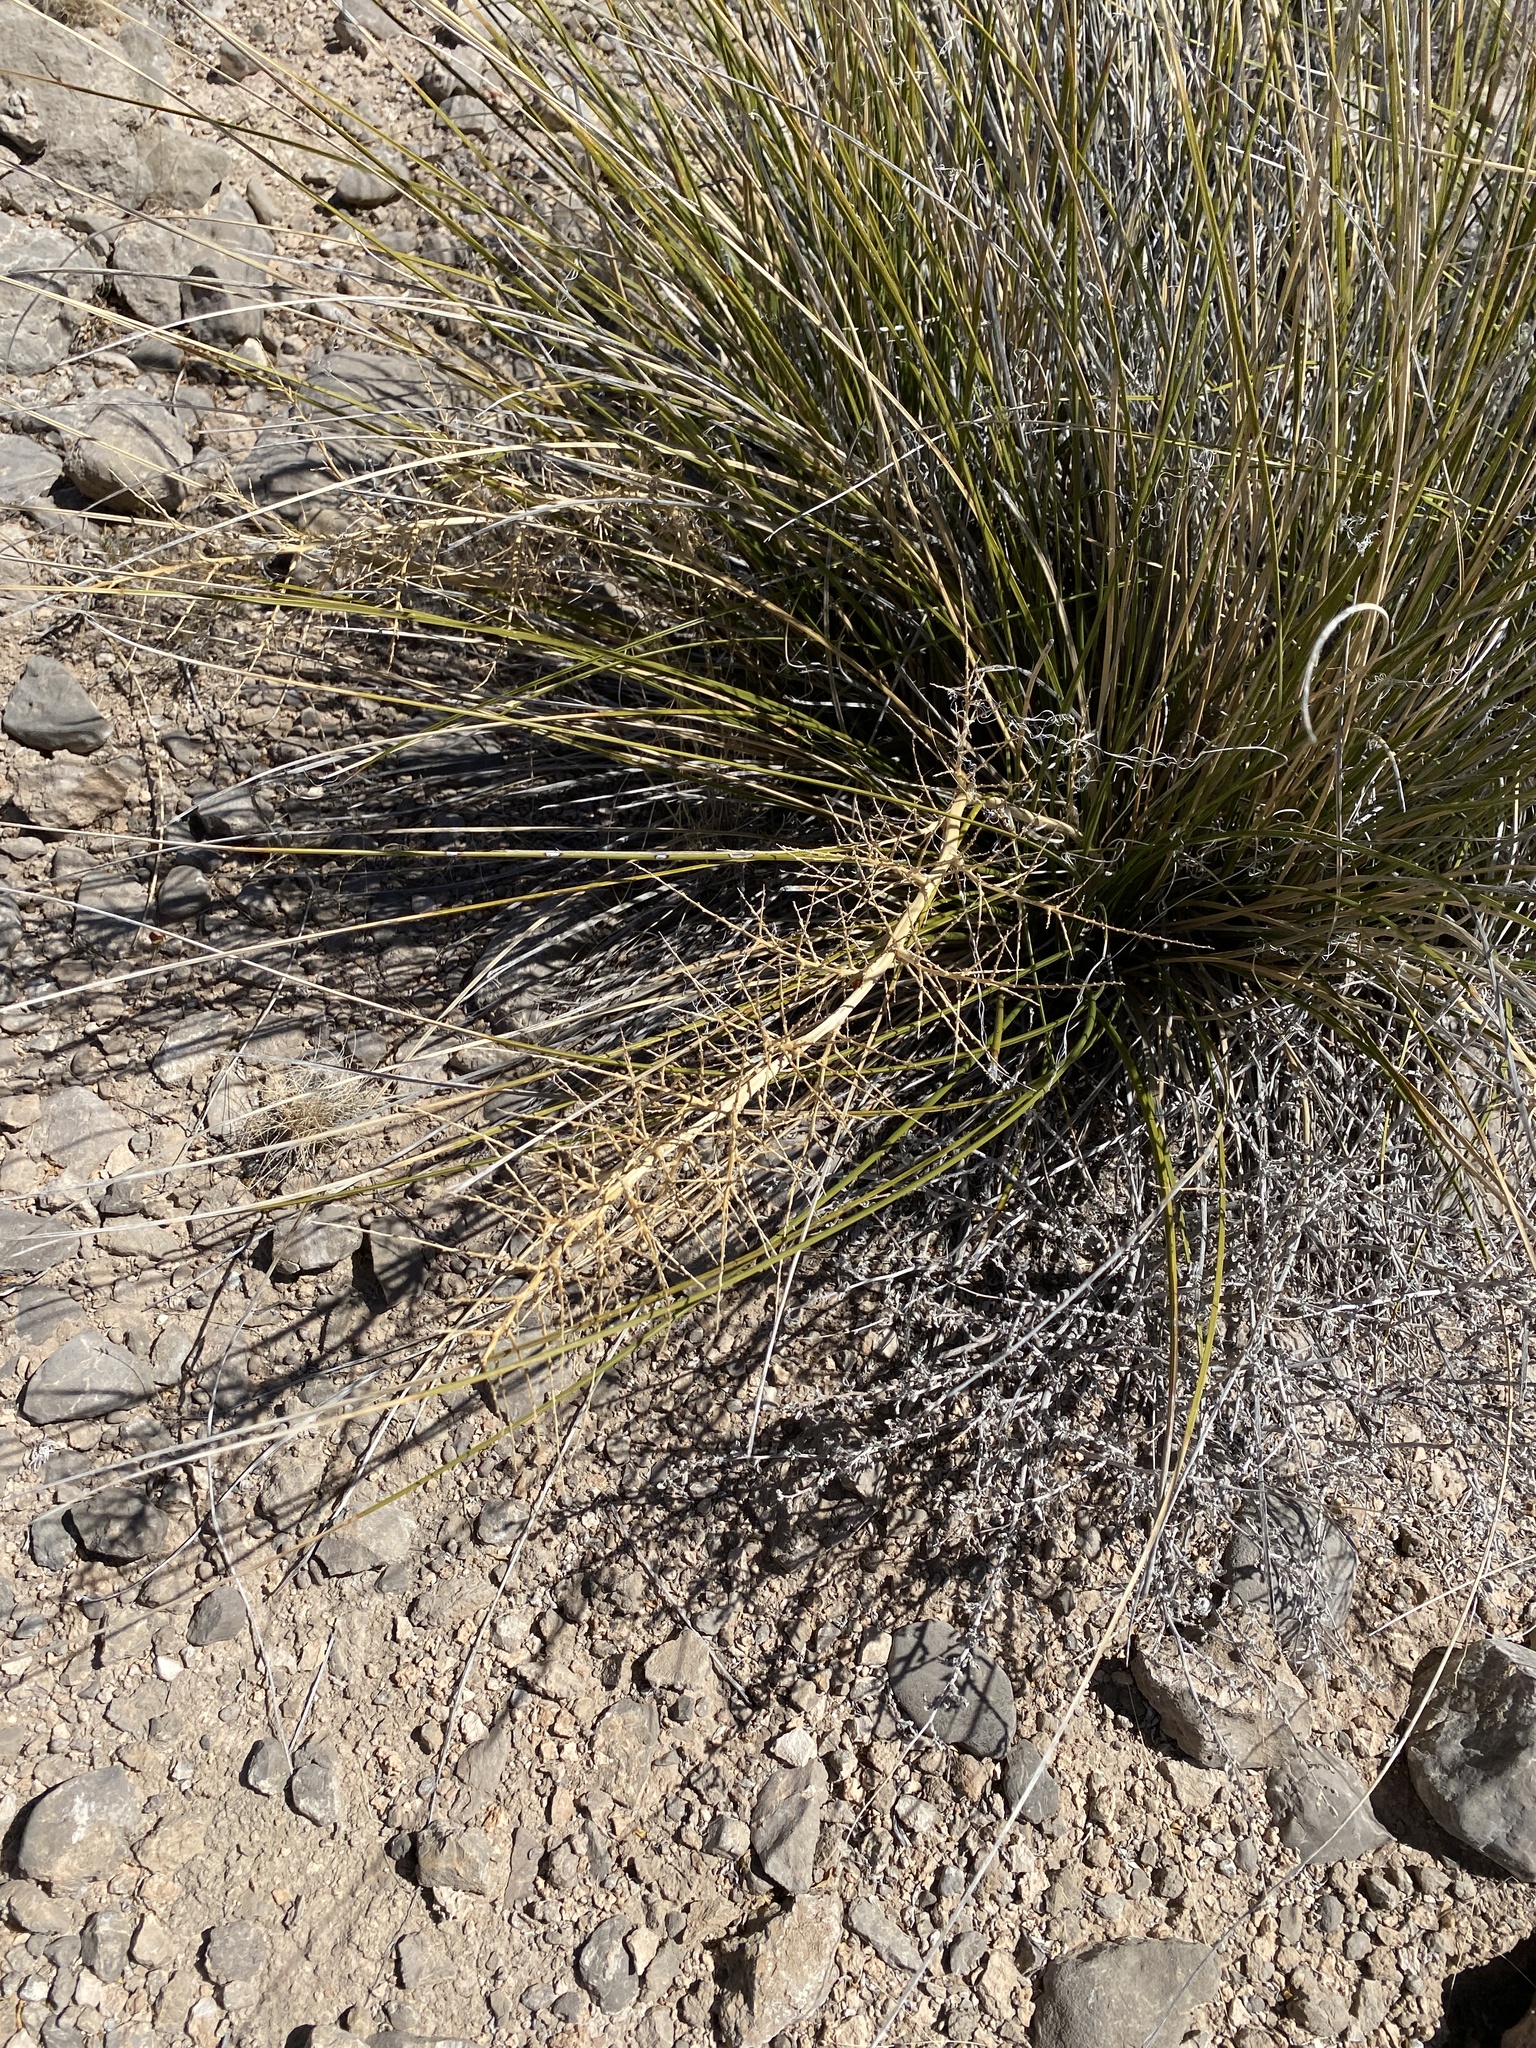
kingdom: Plantae
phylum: Tracheophyta
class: Liliopsida
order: Asparagales
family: Asparagaceae
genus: Nolina
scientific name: Nolina microcarpa
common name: Bear-grass
